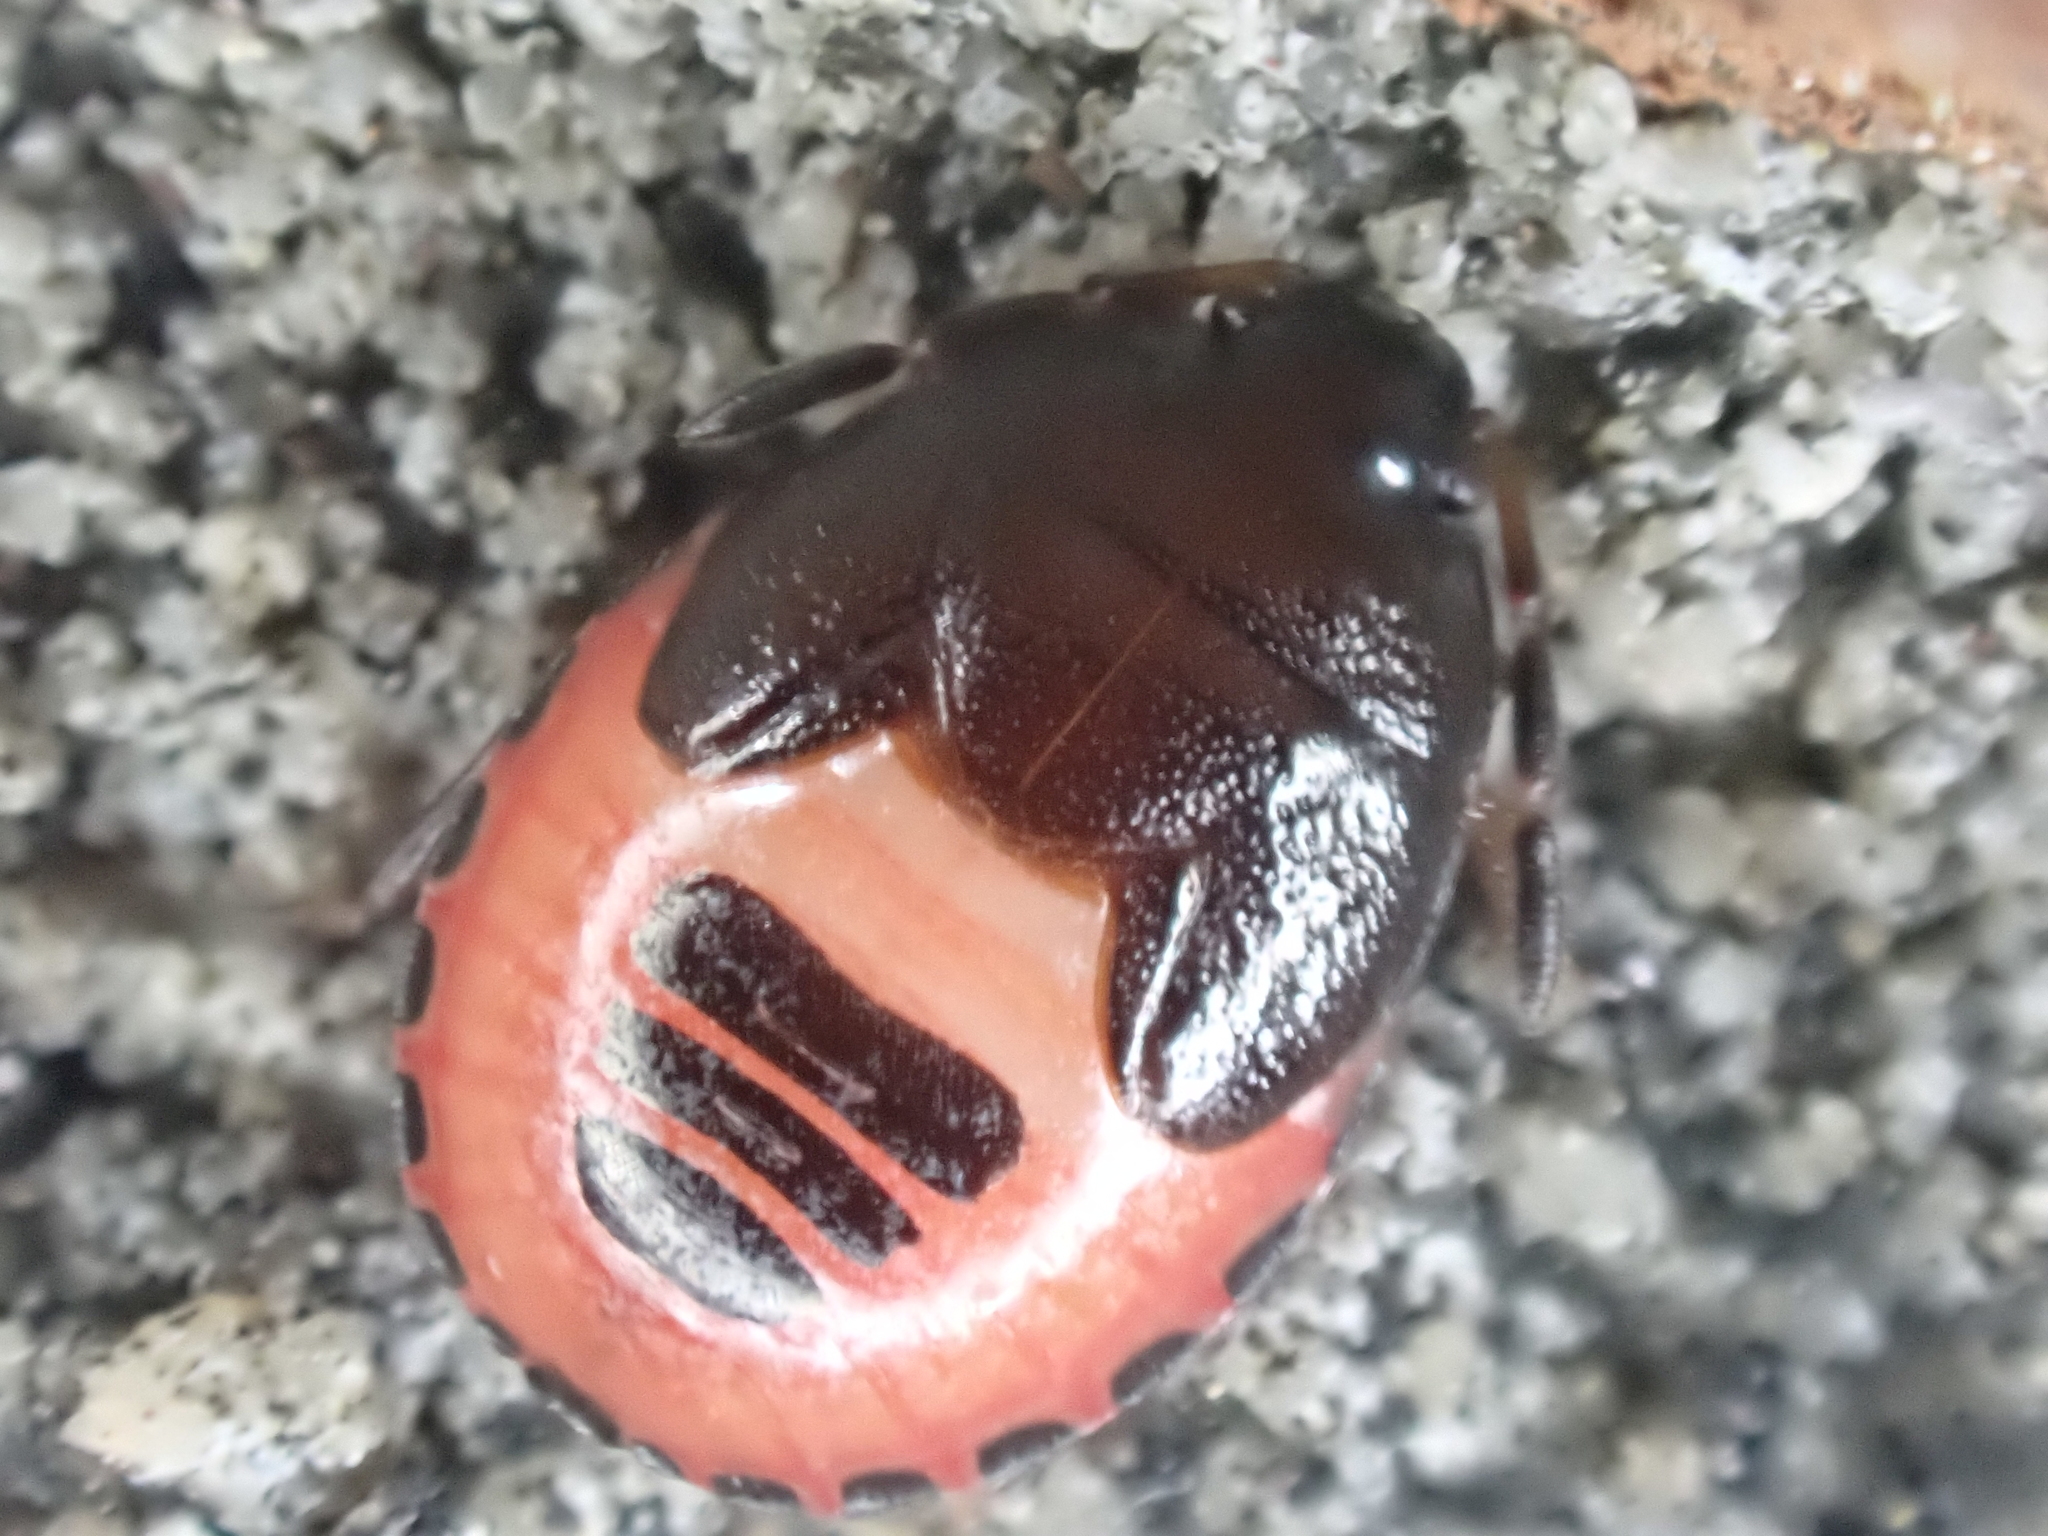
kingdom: Animalia
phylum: Arthropoda
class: Insecta
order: Hemiptera
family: Cydnidae
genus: Sehirus
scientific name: Sehirus cinctus
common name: White-margined burrower bug
